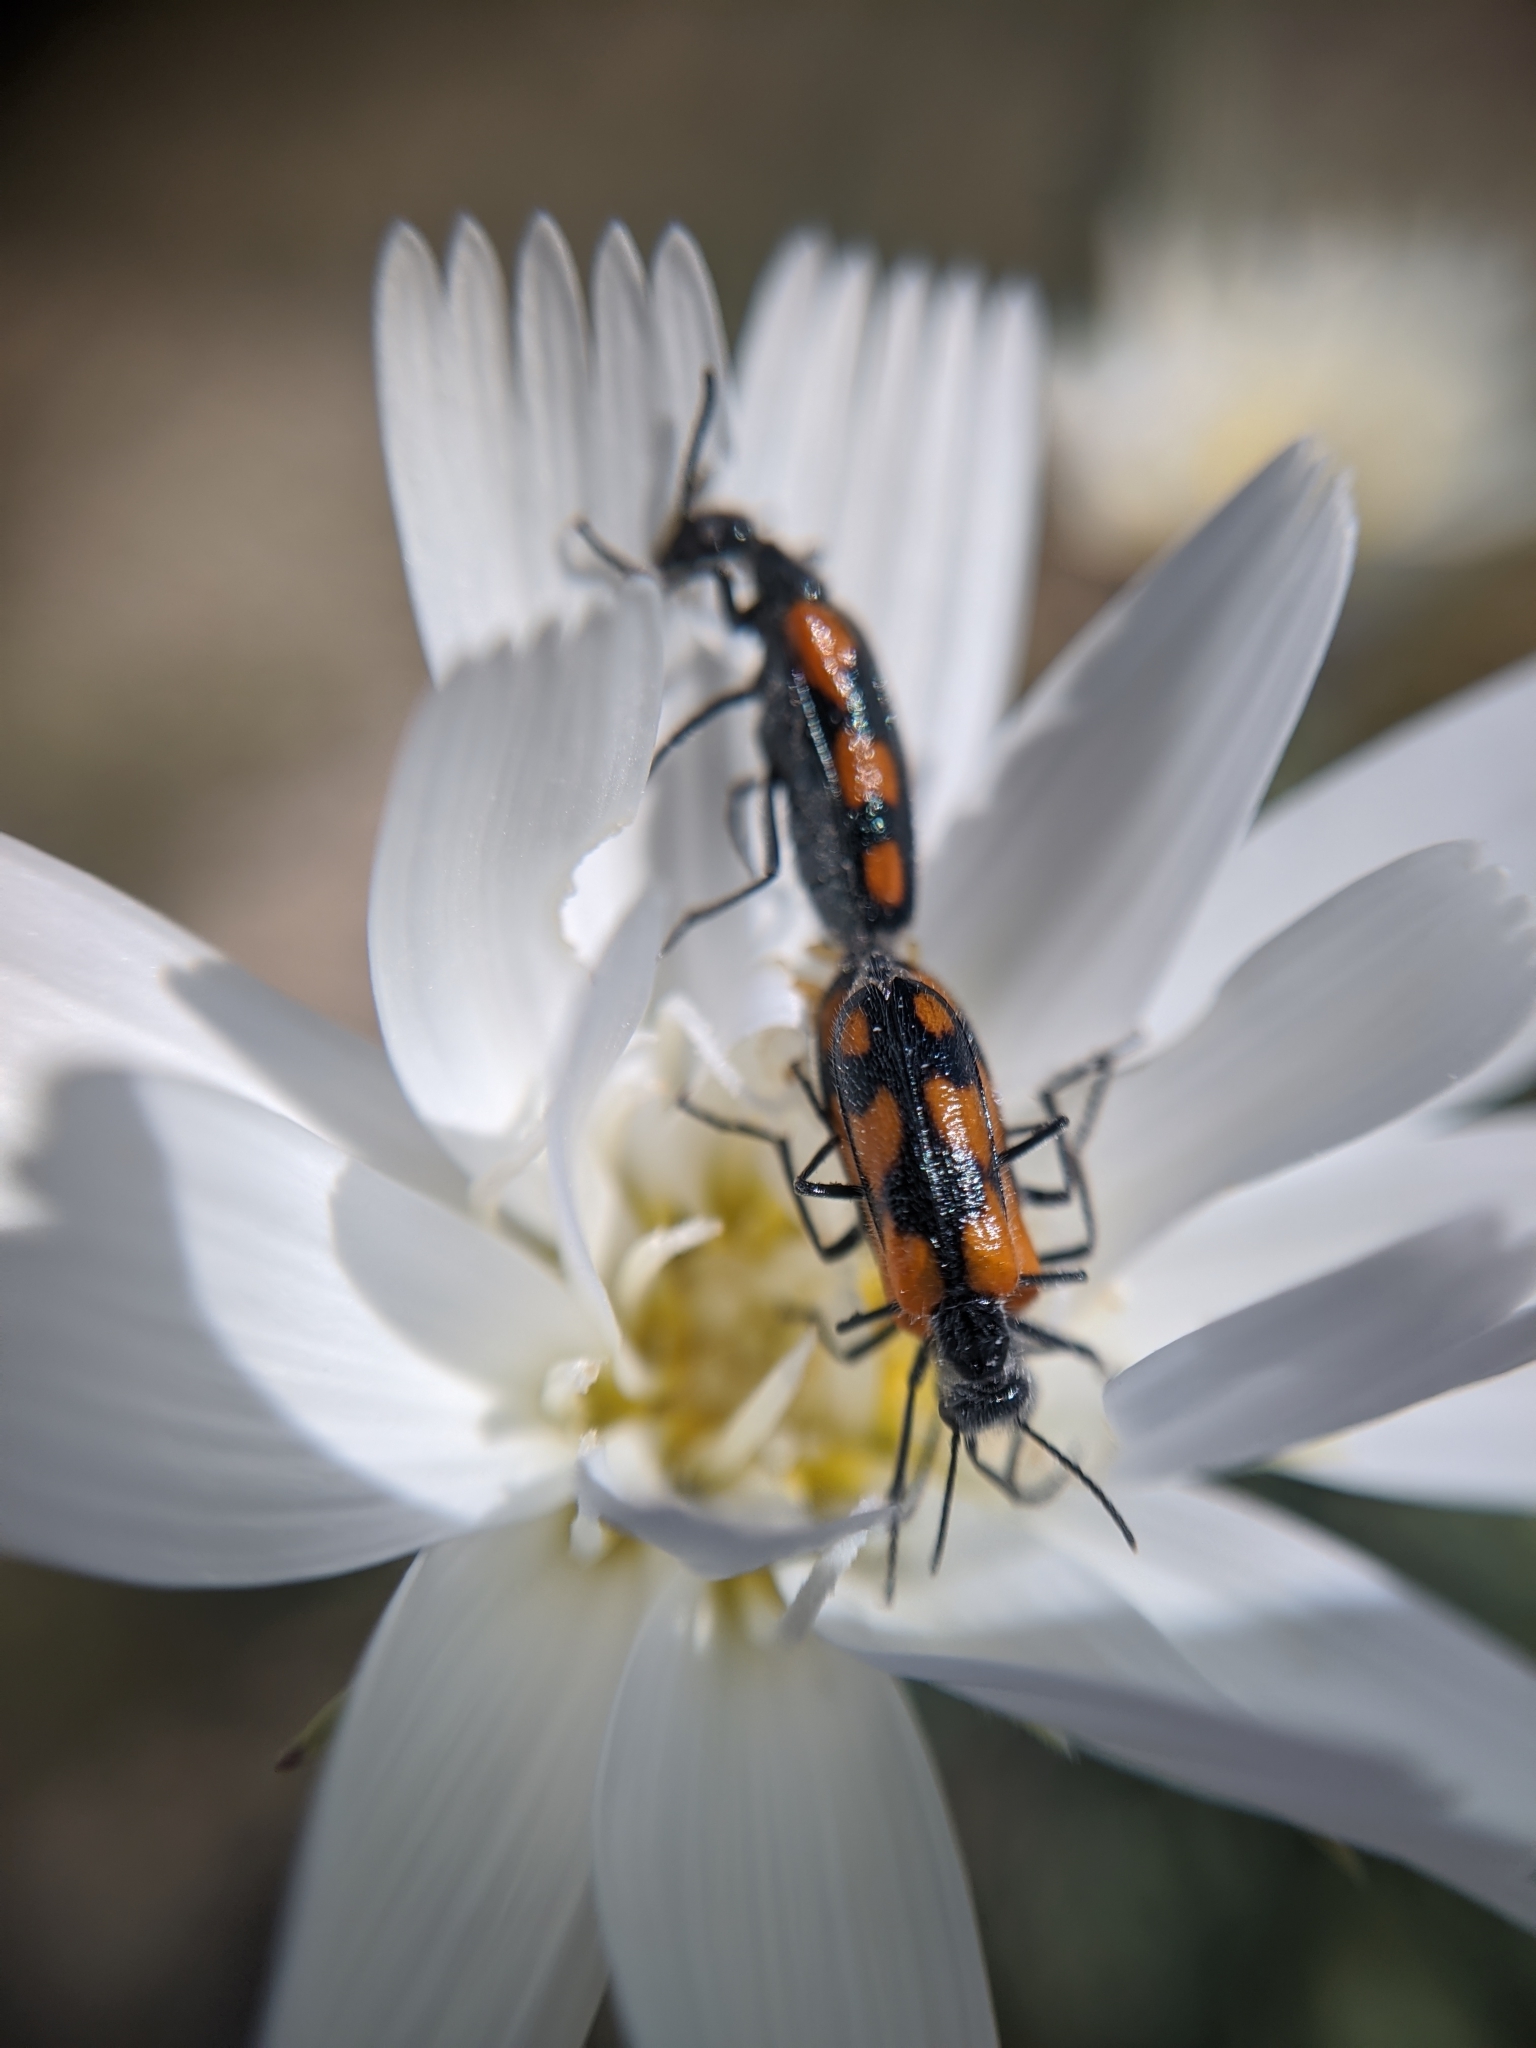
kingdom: Animalia
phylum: Arthropoda
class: Insecta
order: Coleoptera
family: Meloidae
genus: Eupompha
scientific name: Eupompha elegans
